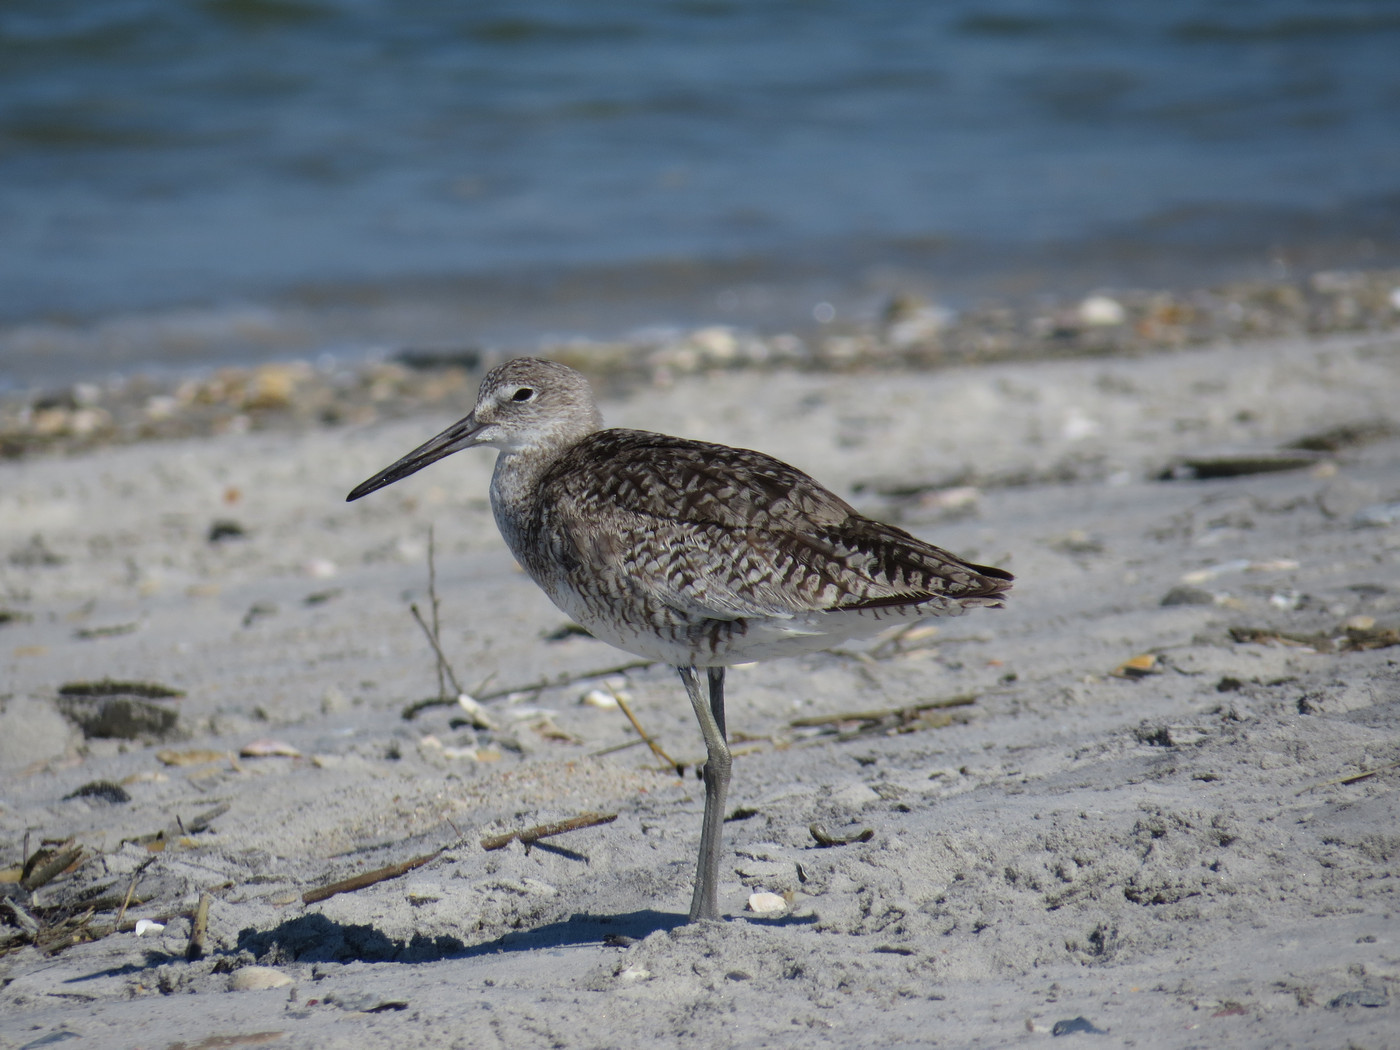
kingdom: Animalia
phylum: Chordata
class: Aves
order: Charadriiformes
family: Scolopacidae
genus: Tringa
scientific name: Tringa semipalmata
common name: Willet
